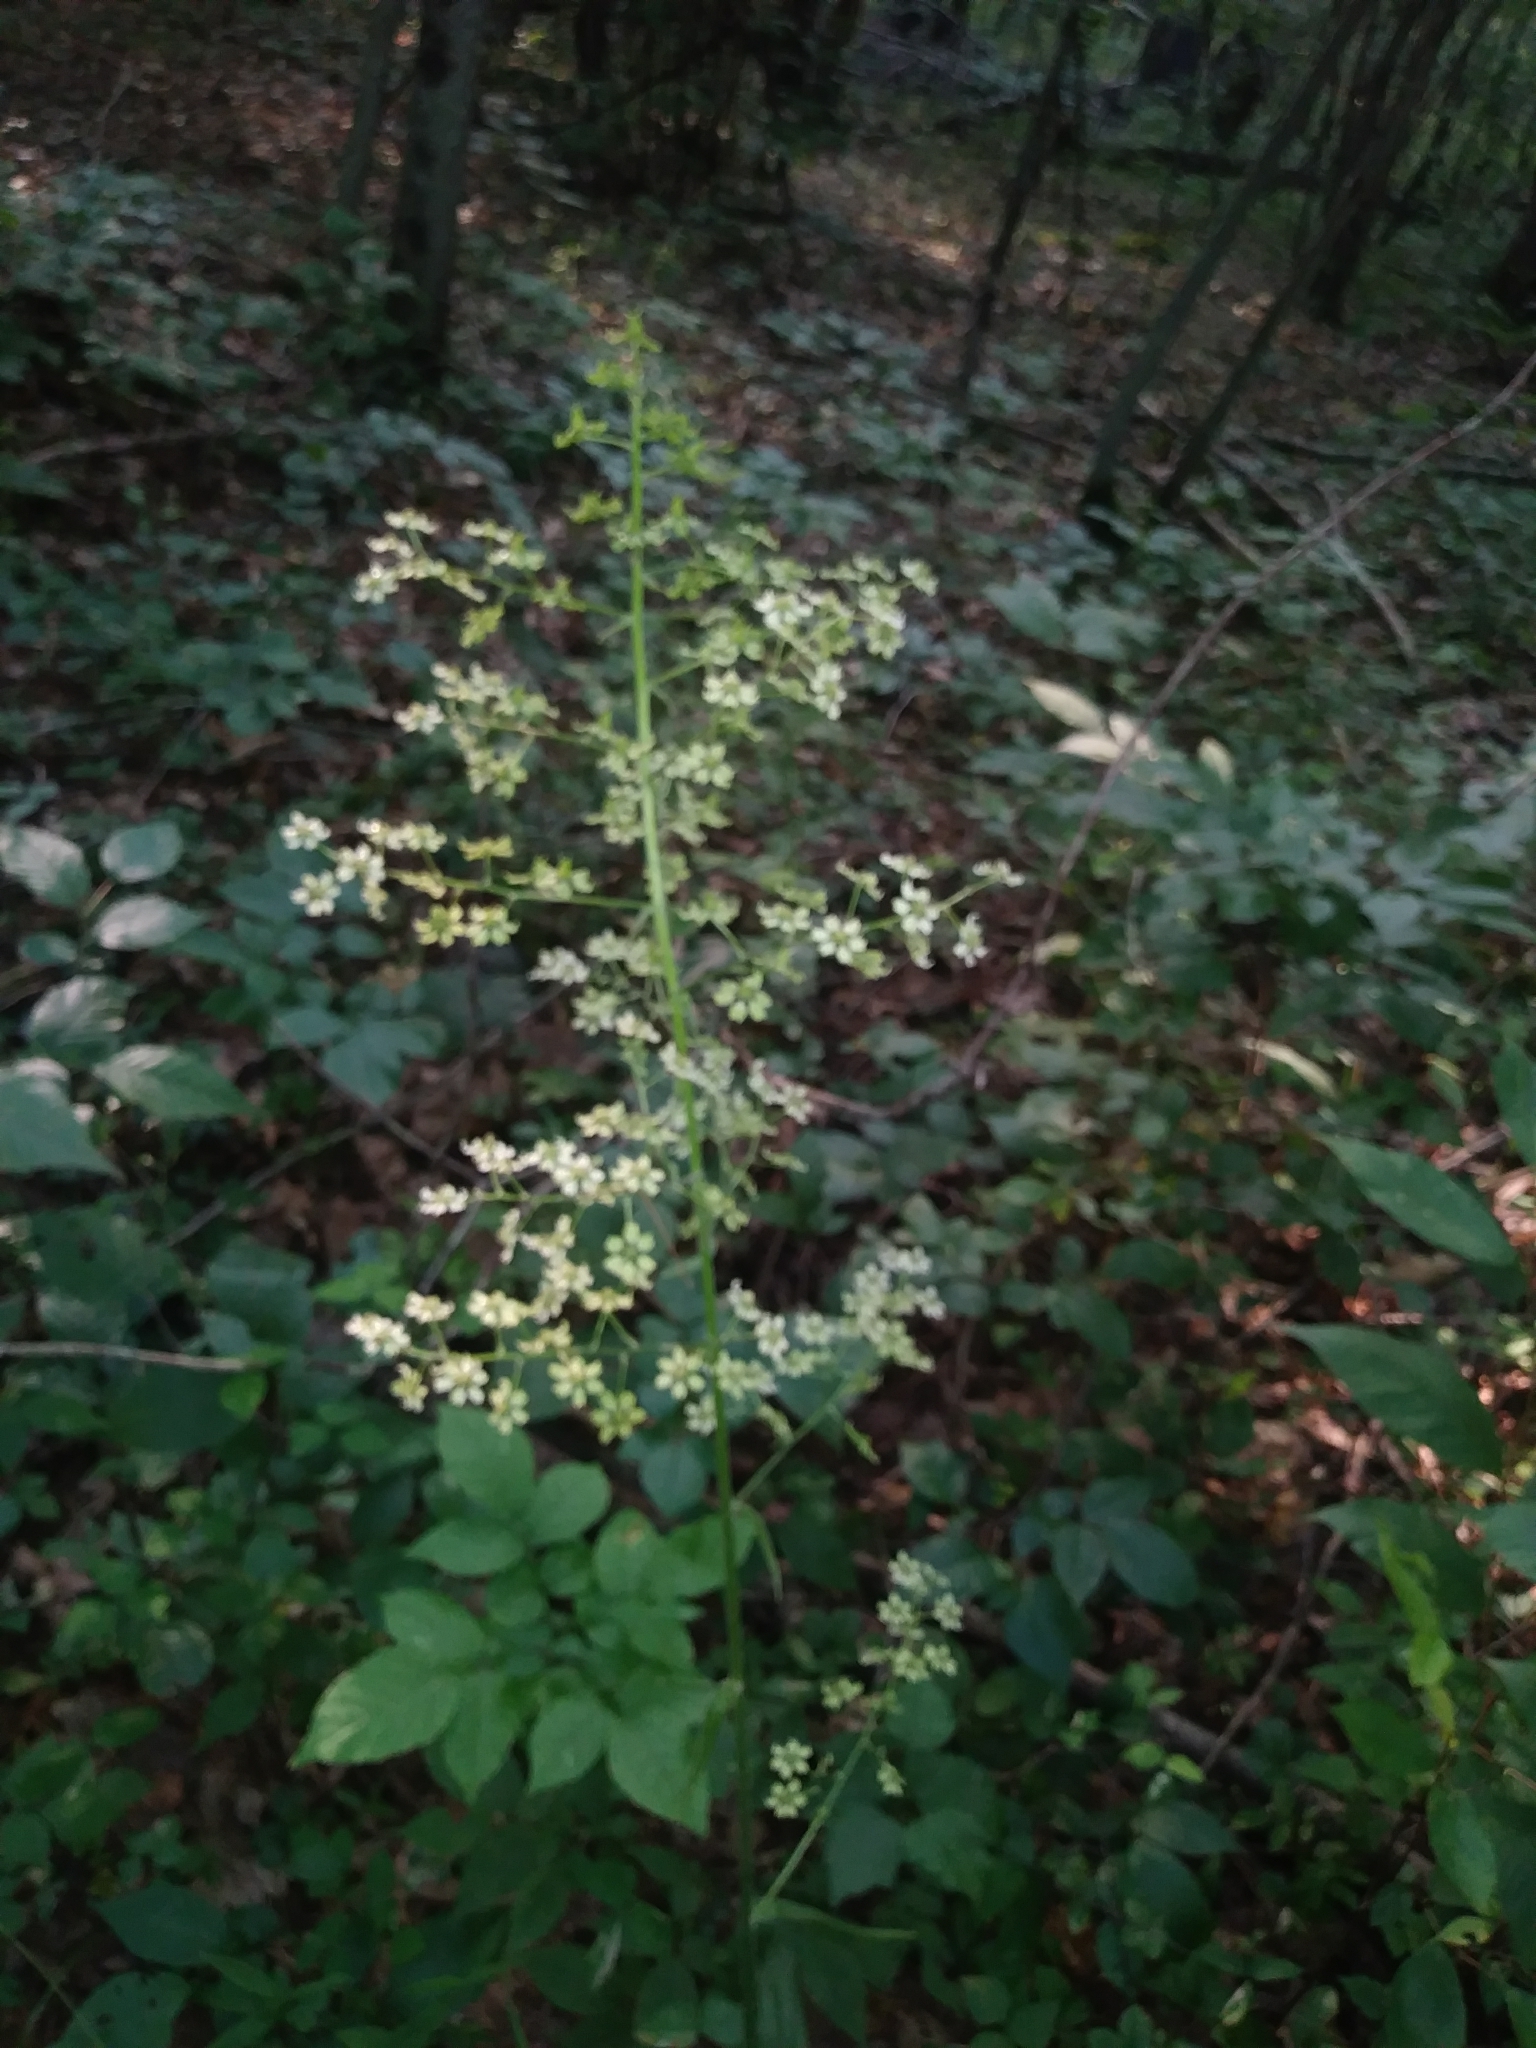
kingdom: Plantae
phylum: Tracheophyta
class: Liliopsida
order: Liliales
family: Melanthiaceae
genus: Veratrum
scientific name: Veratrum hybridum
